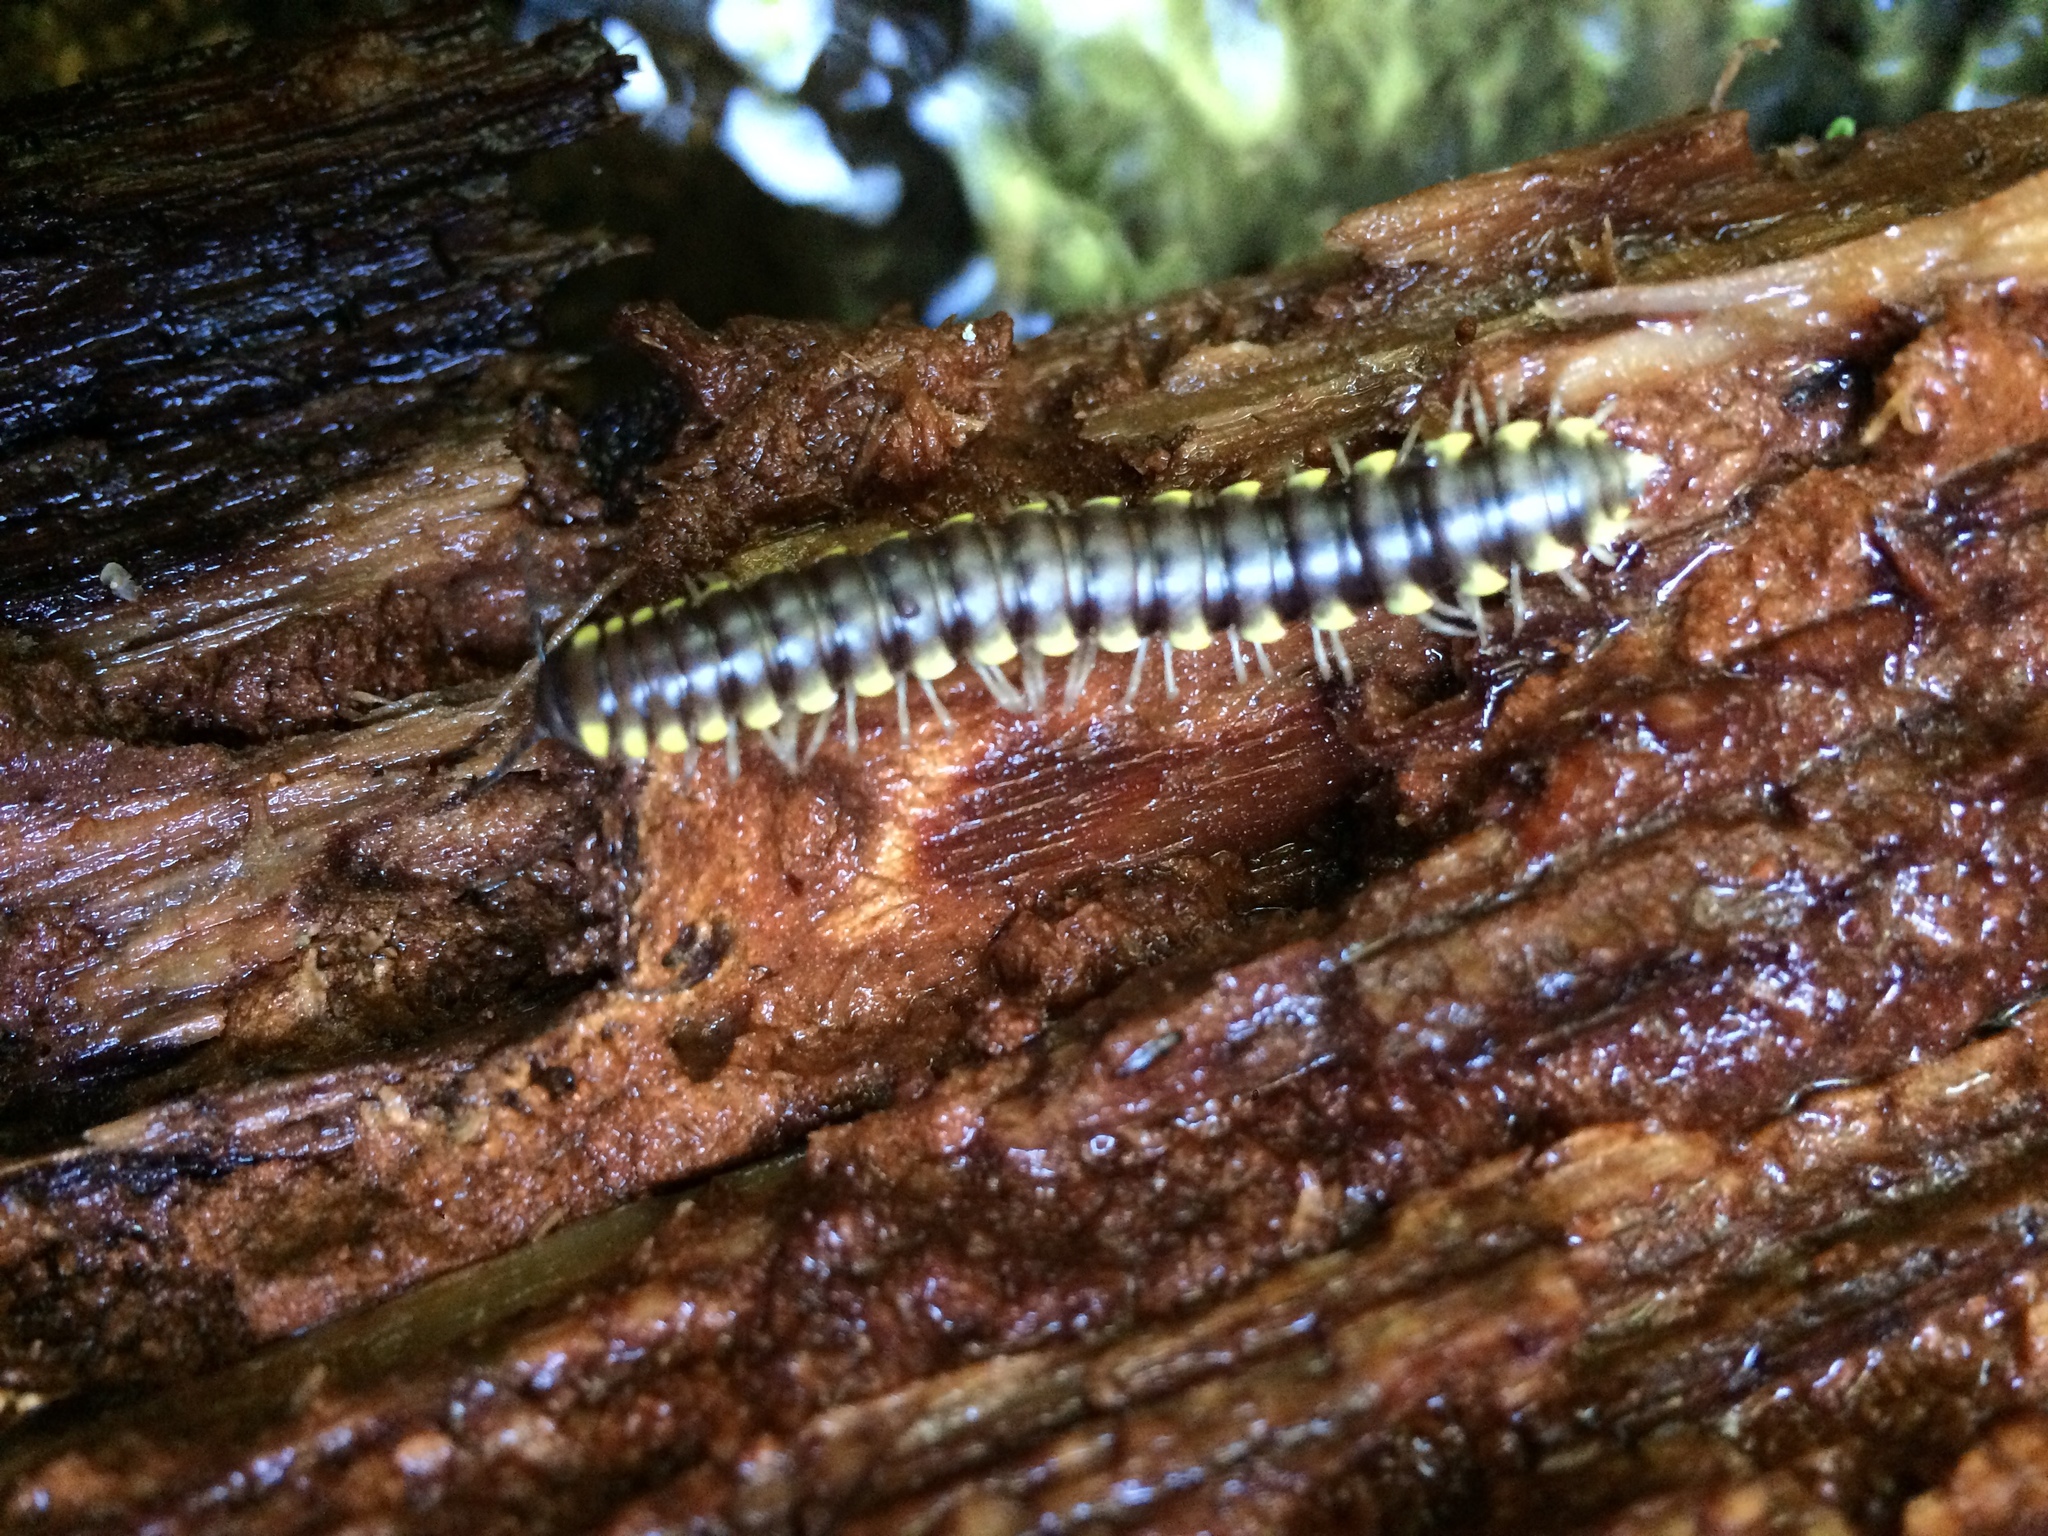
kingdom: Animalia
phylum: Arthropoda
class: Diplopoda
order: Polydesmida
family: Xystodesmidae
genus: Harpaphe
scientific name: Harpaphe haydeniana
